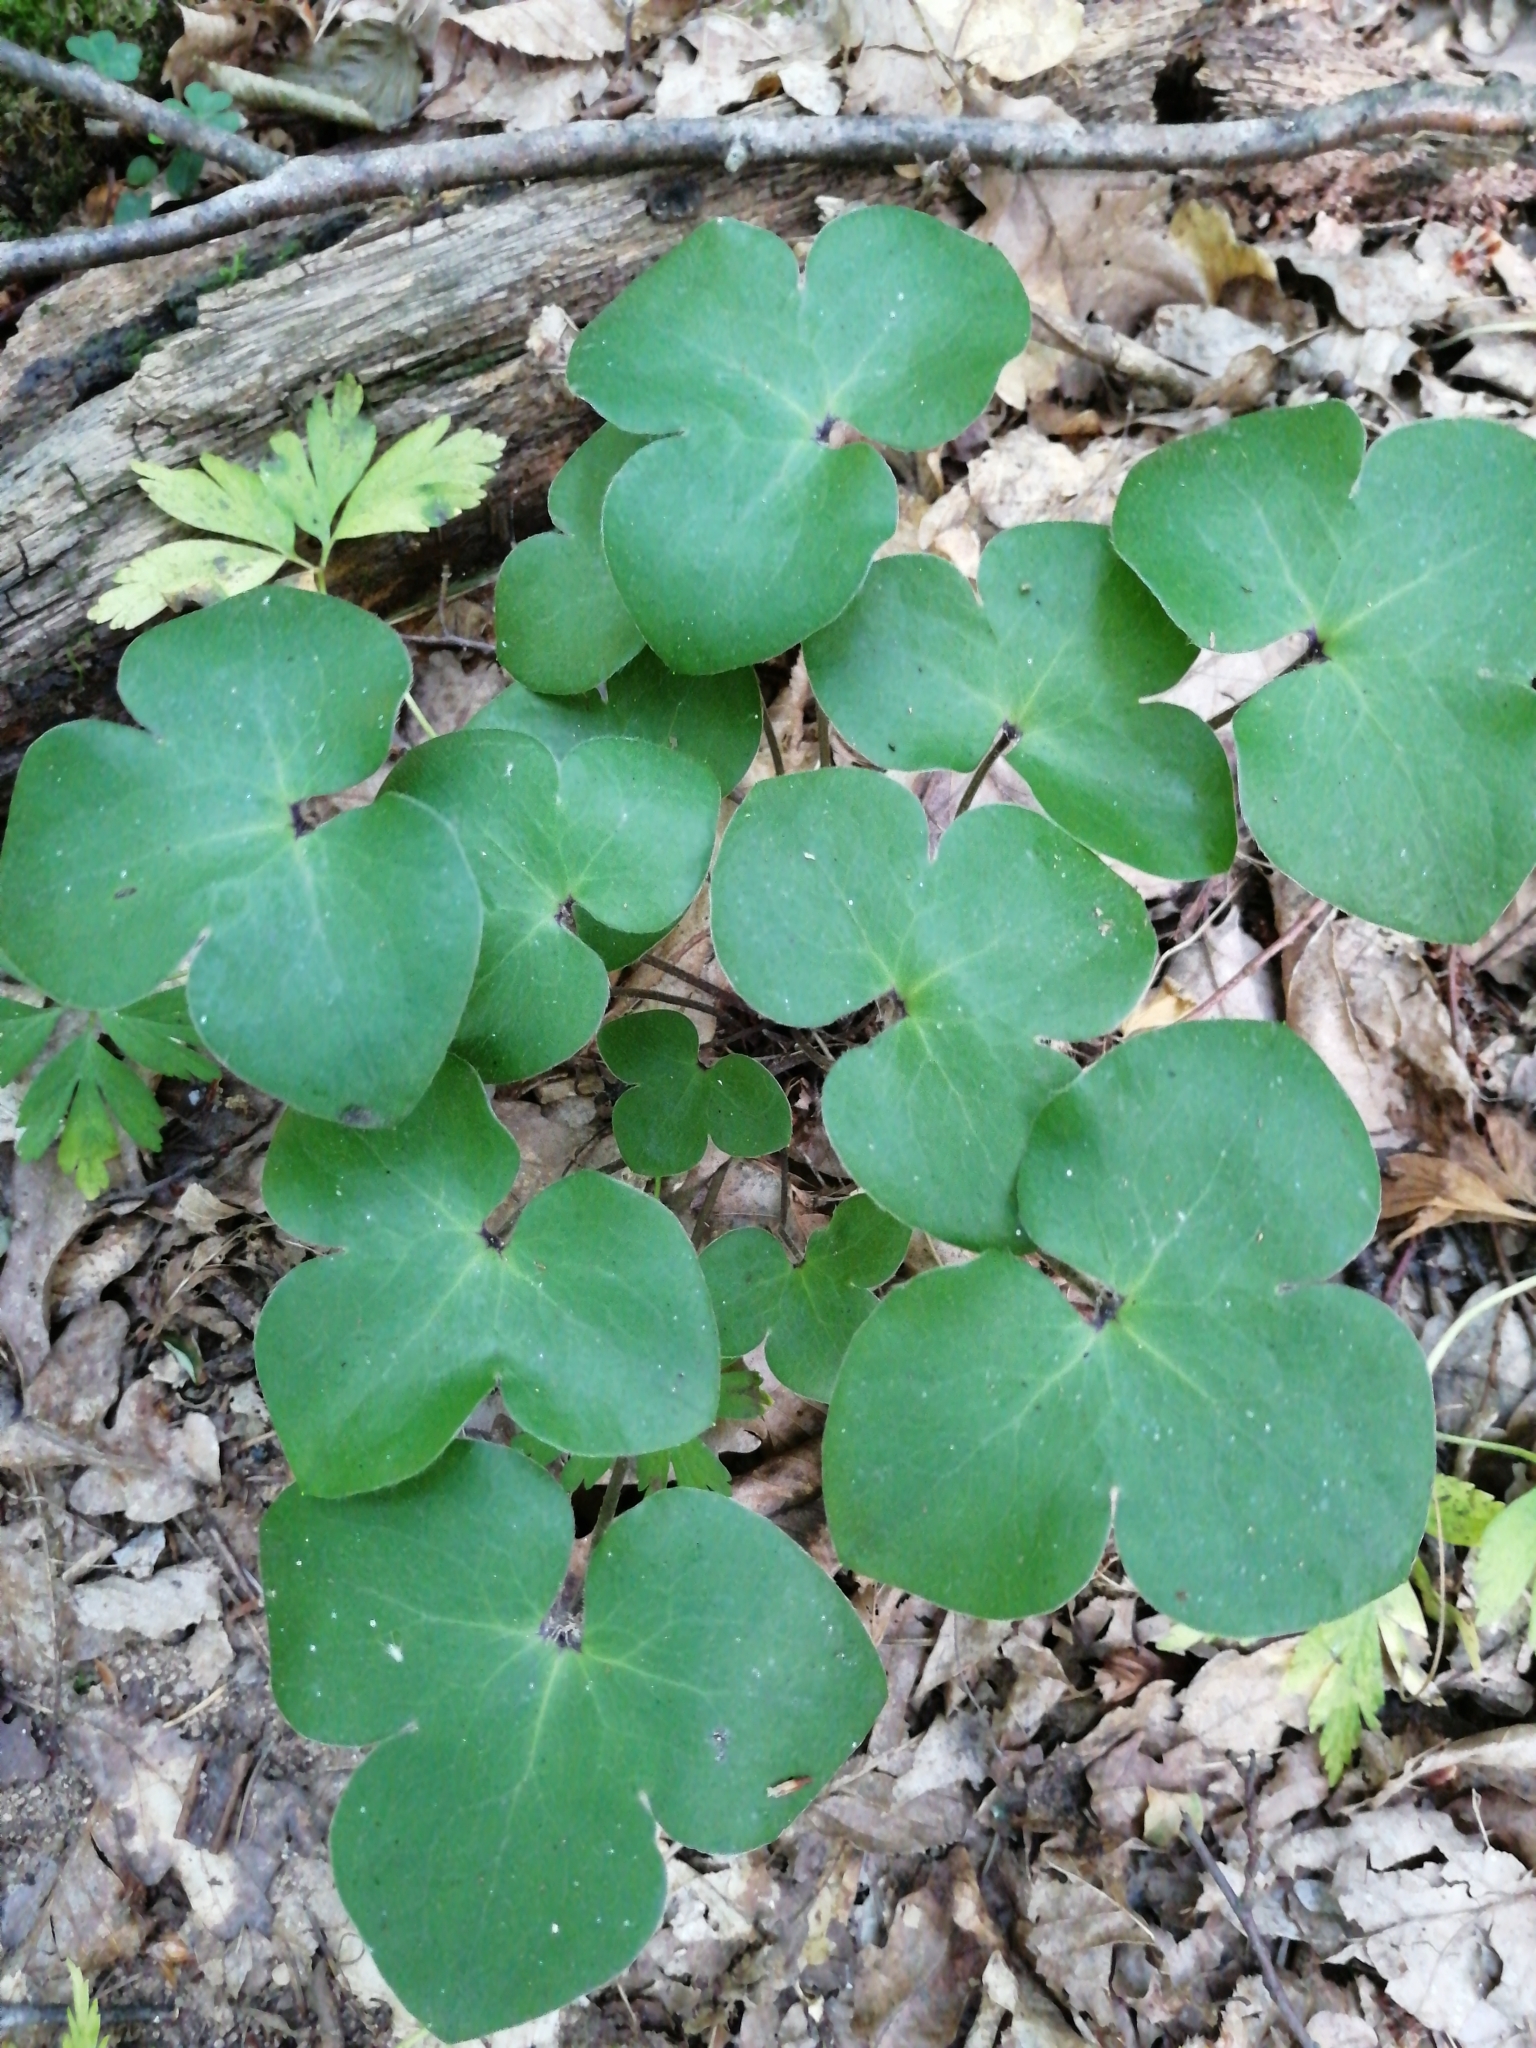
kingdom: Plantae
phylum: Tracheophyta
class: Magnoliopsida
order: Ranunculales
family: Ranunculaceae
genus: Hepatica
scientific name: Hepatica nobilis
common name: Liverleaf
